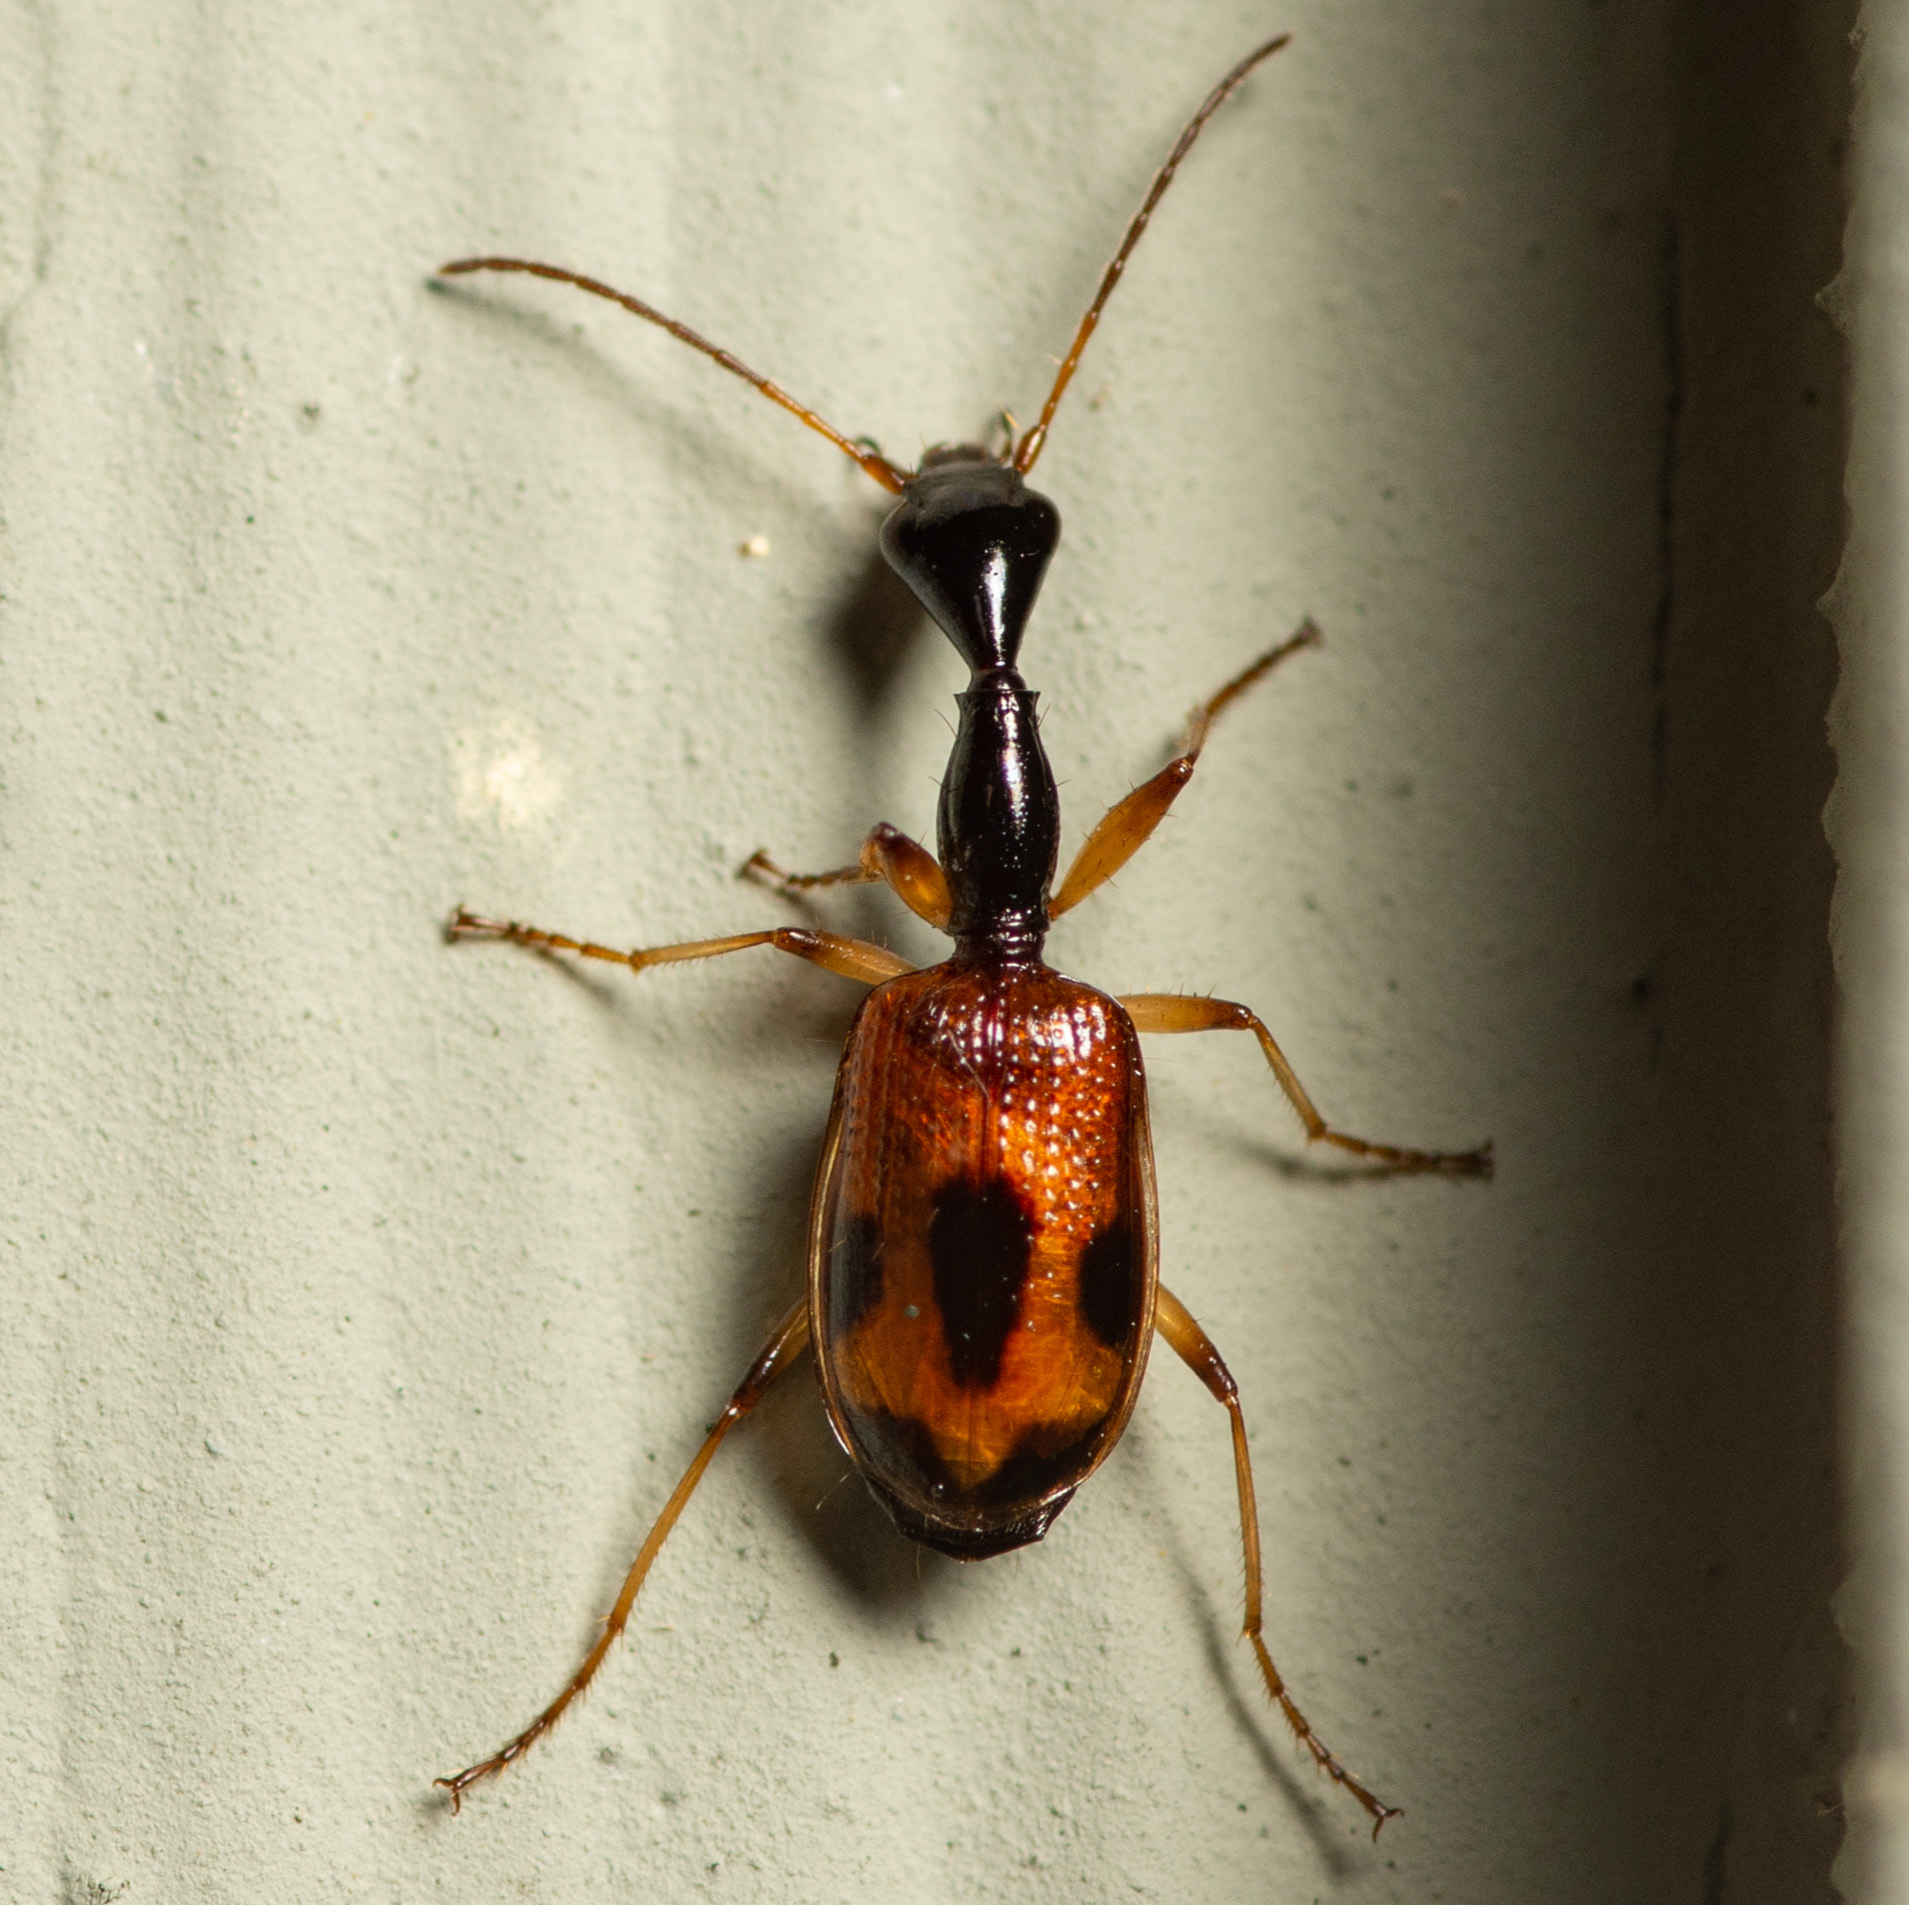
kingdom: Animalia
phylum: Arthropoda
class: Insecta
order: Coleoptera
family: Carabidae
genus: Colliuris
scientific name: Colliuris pensylvanica
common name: Long-necked ground beetle
